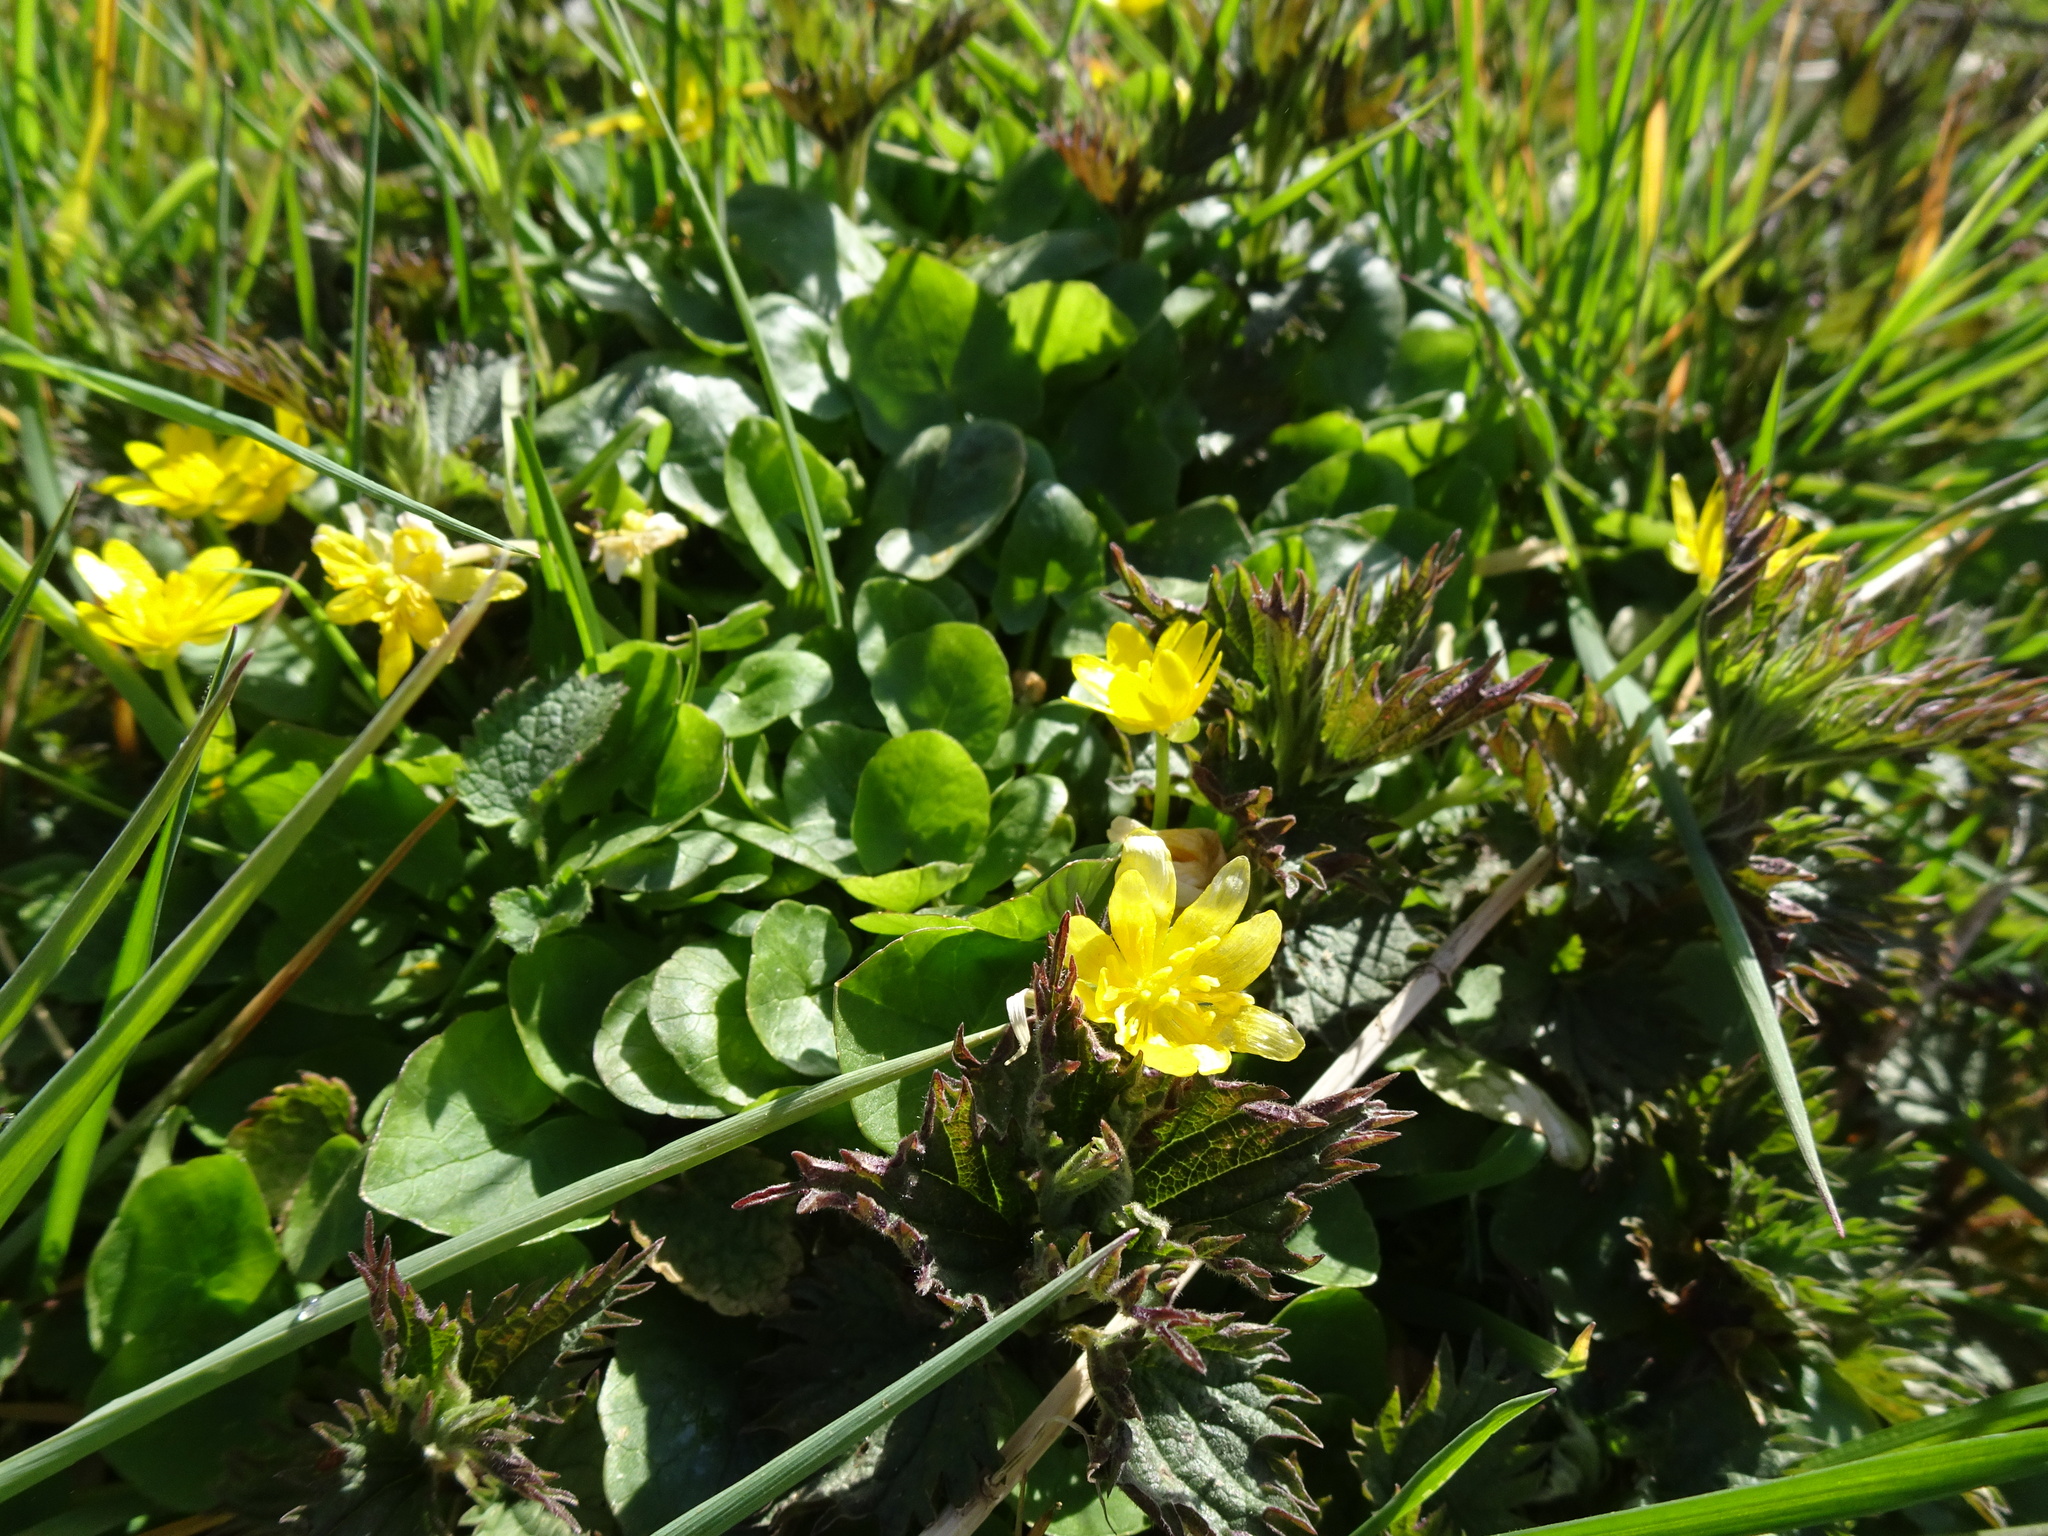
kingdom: Plantae
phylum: Tracheophyta
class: Magnoliopsida
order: Ranunculales
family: Ranunculaceae
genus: Ficaria
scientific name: Ficaria verna
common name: Lesser celandine
